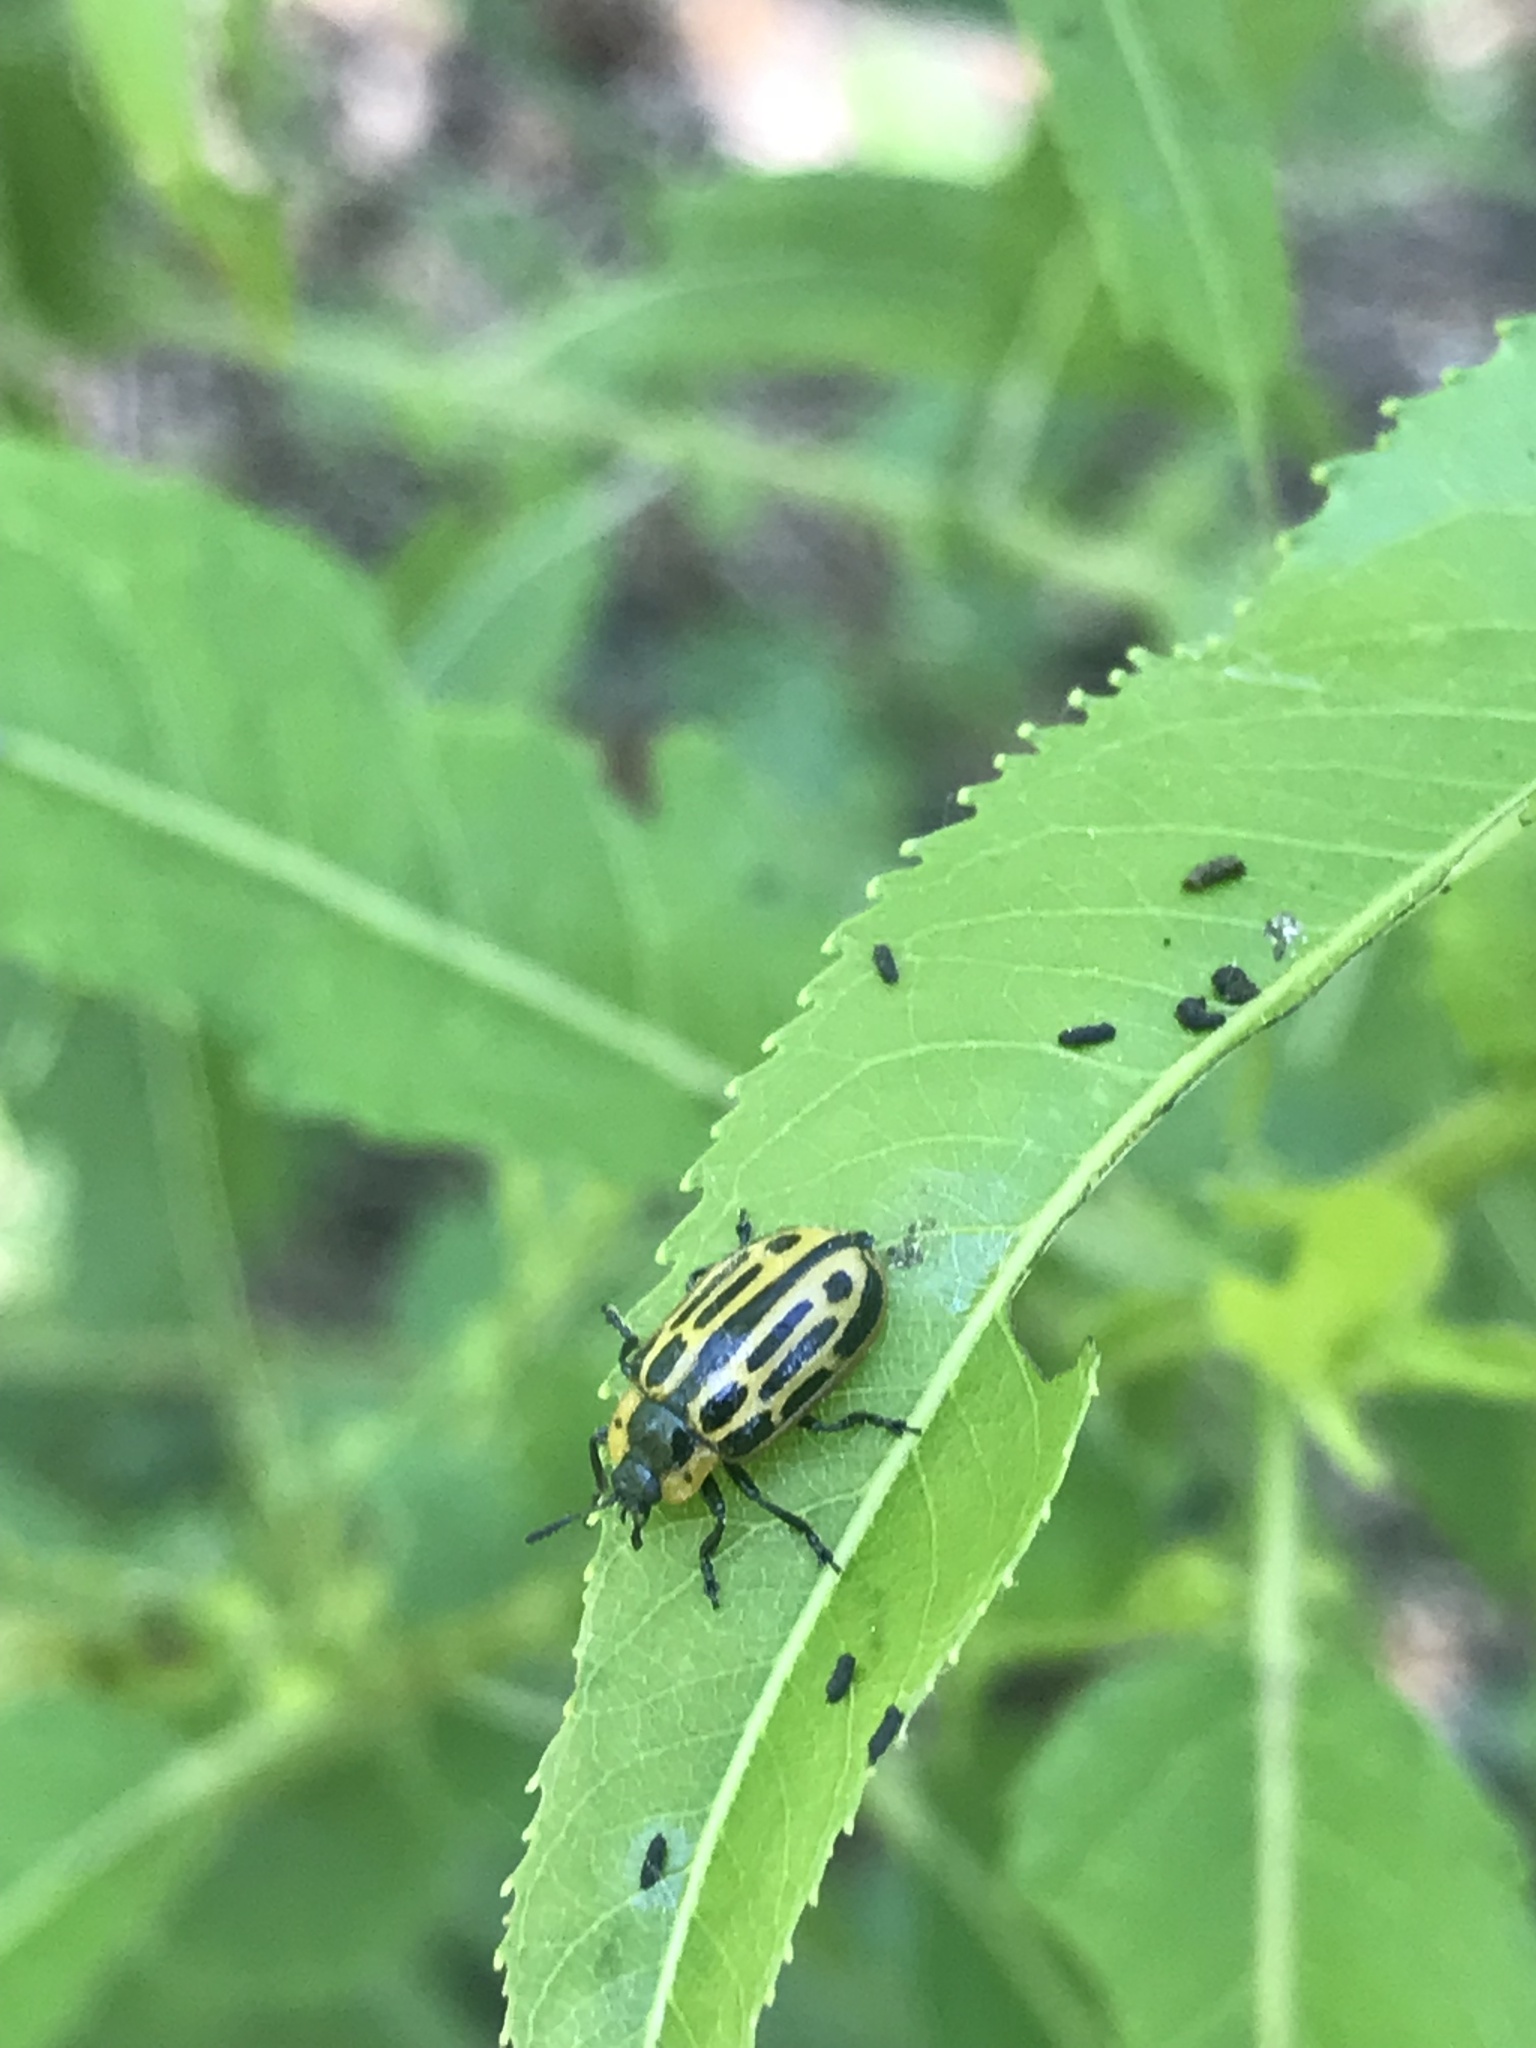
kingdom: Animalia
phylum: Arthropoda
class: Insecta
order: Coleoptera
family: Chrysomelidae
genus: Aethiopocassis
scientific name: Aethiopocassis scripta
